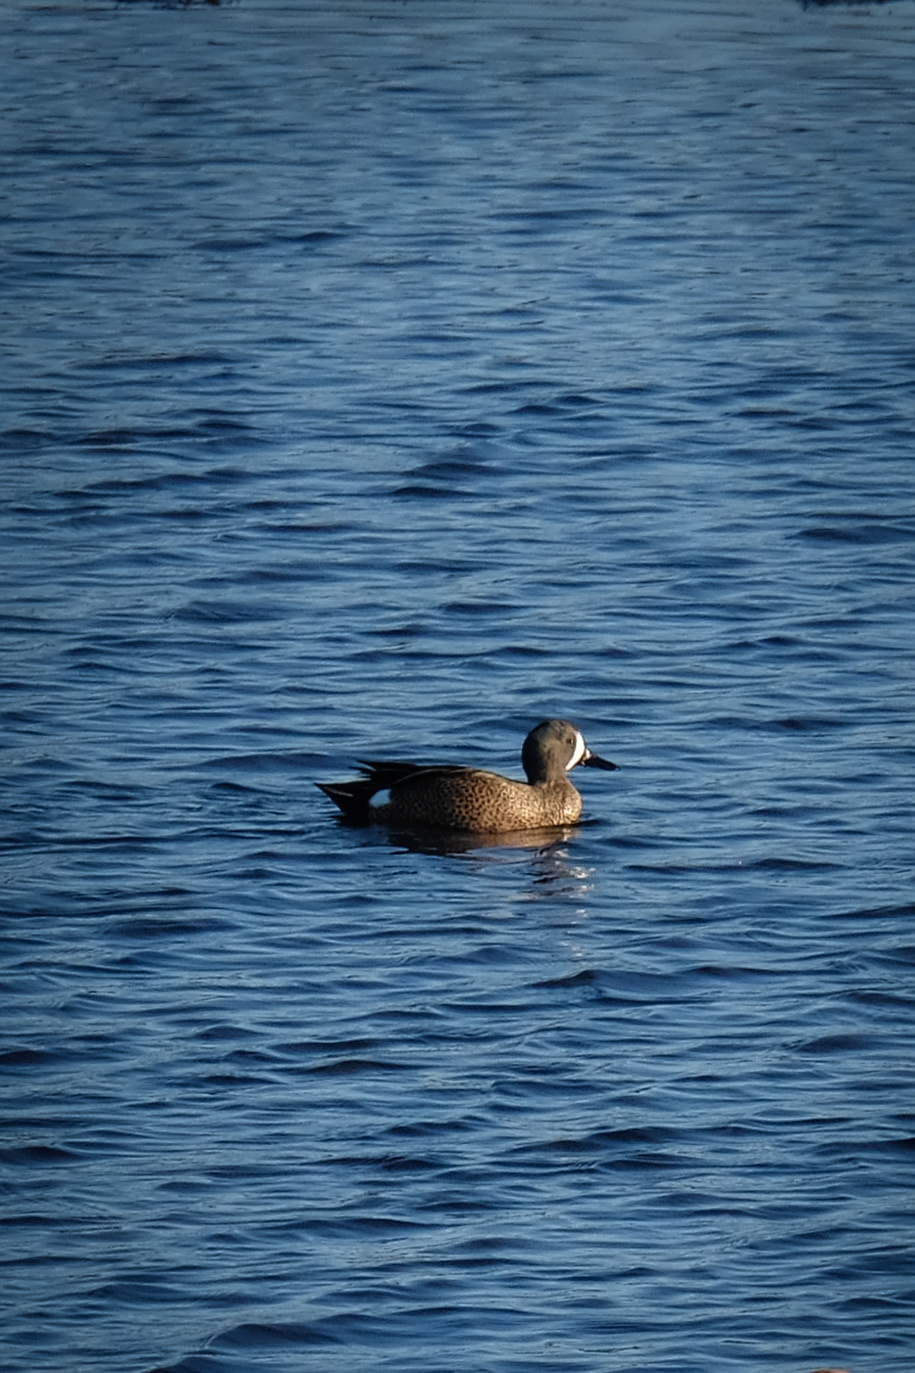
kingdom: Animalia
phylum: Chordata
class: Aves
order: Anseriformes
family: Anatidae
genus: Spatula
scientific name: Spatula discors
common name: Blue-winged teal
